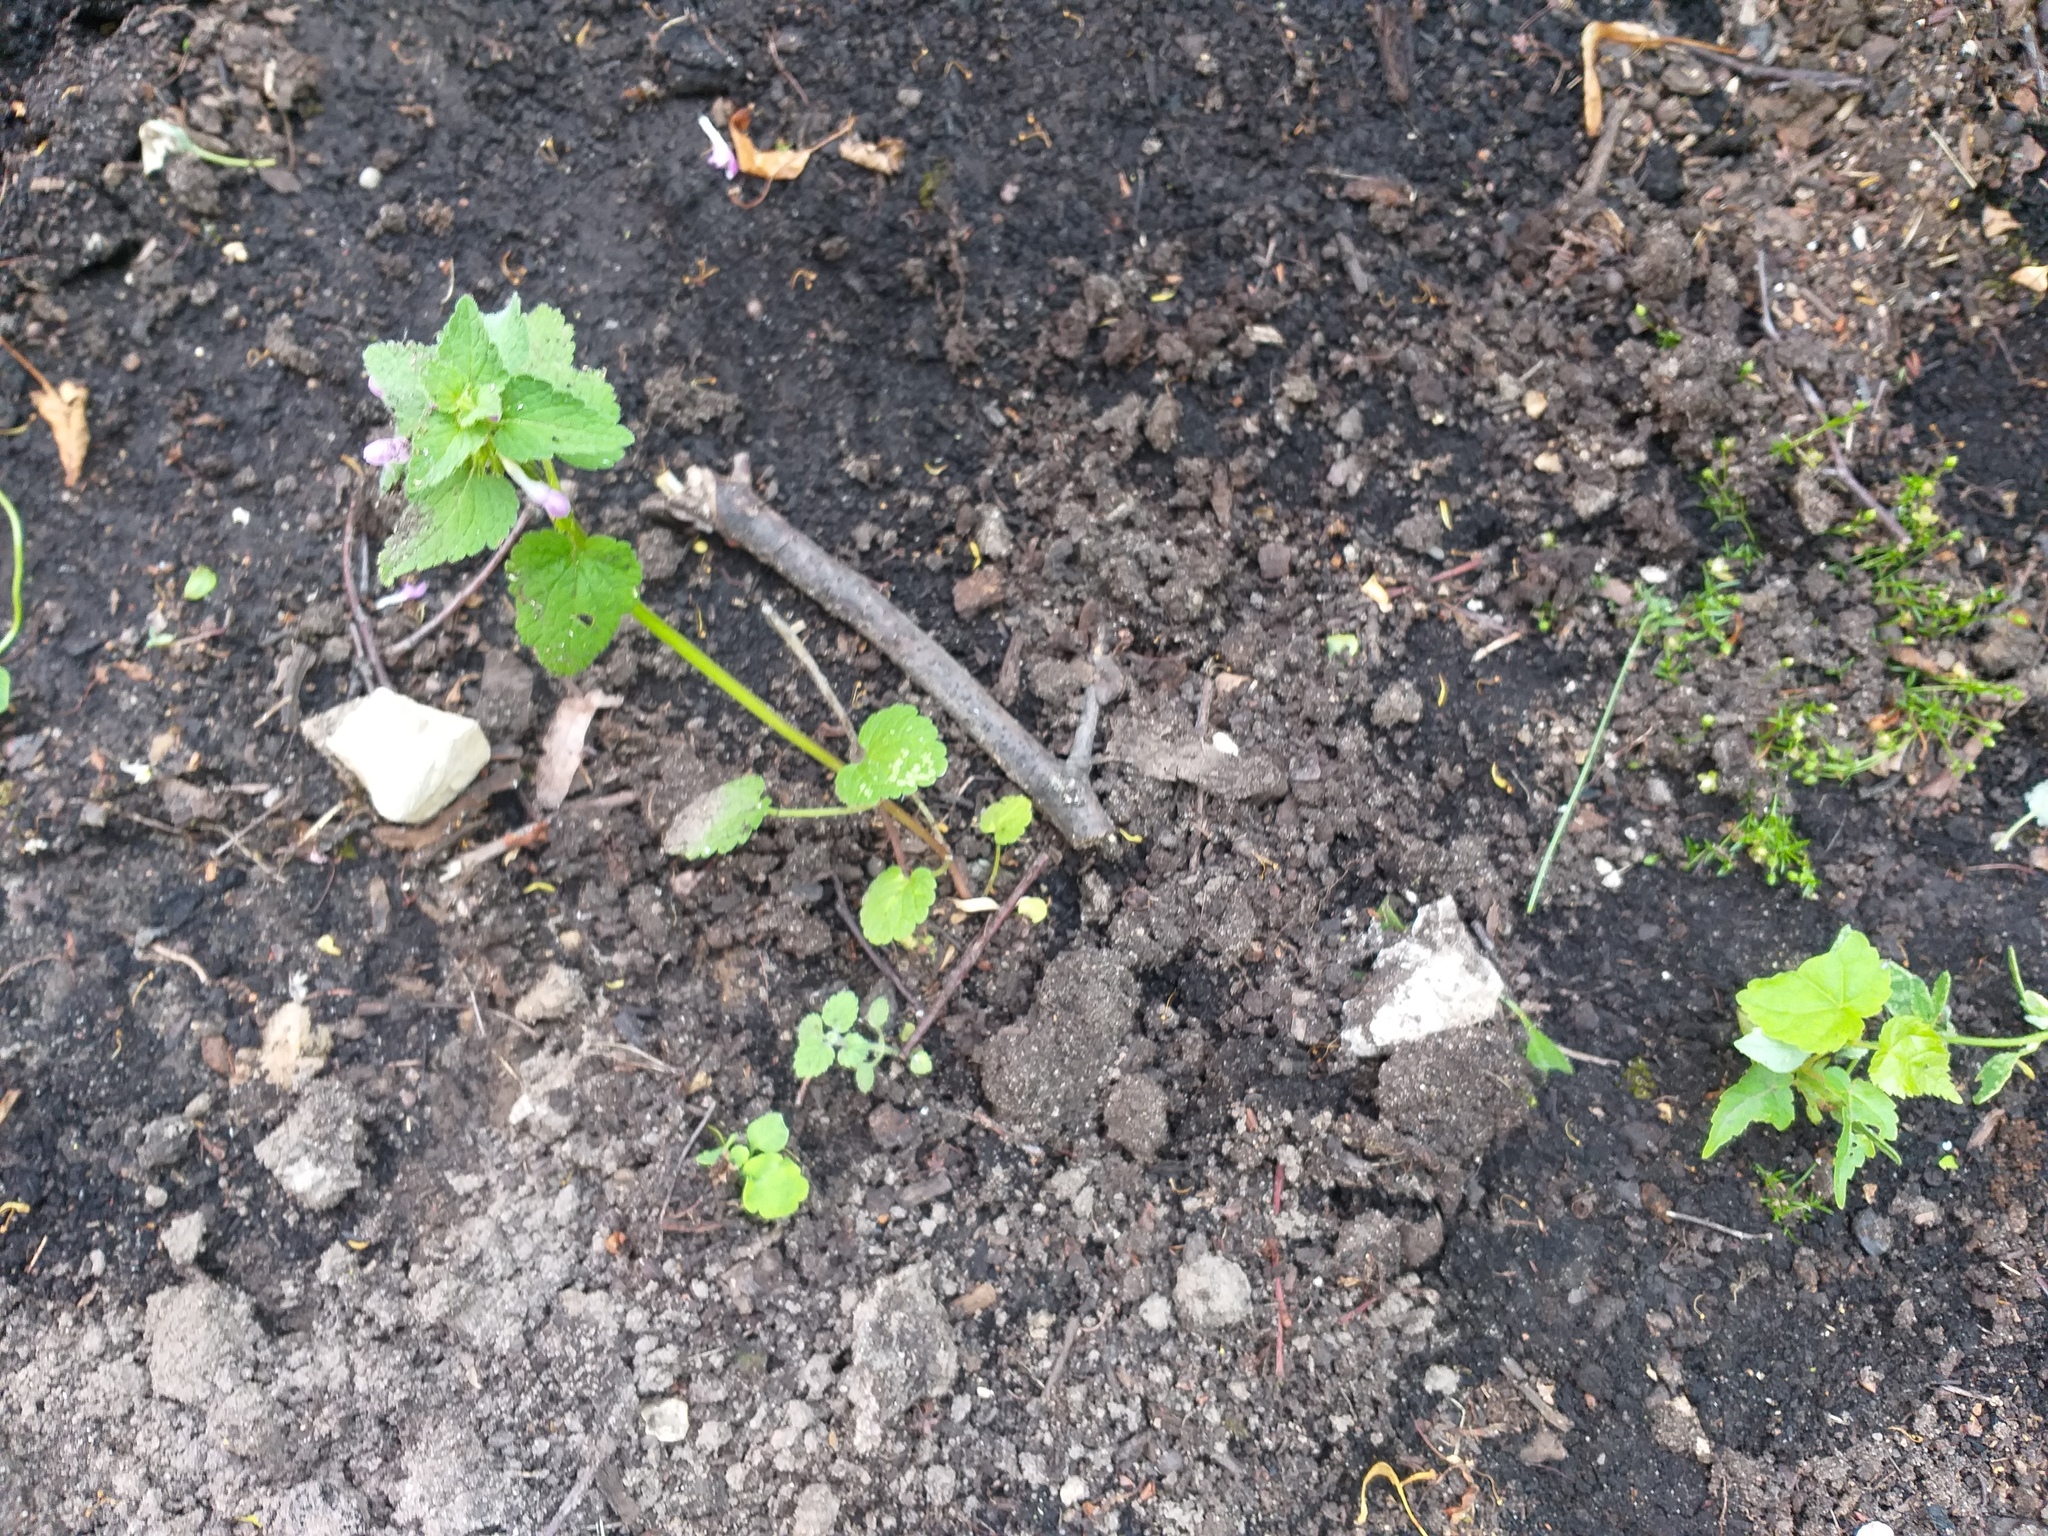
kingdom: Plantae
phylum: Tracheophyta
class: Magnoliopsida
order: Lamiales
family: Lamiaceae
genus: Lamium
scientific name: Lamium purpureum
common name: Red dead-nettle
